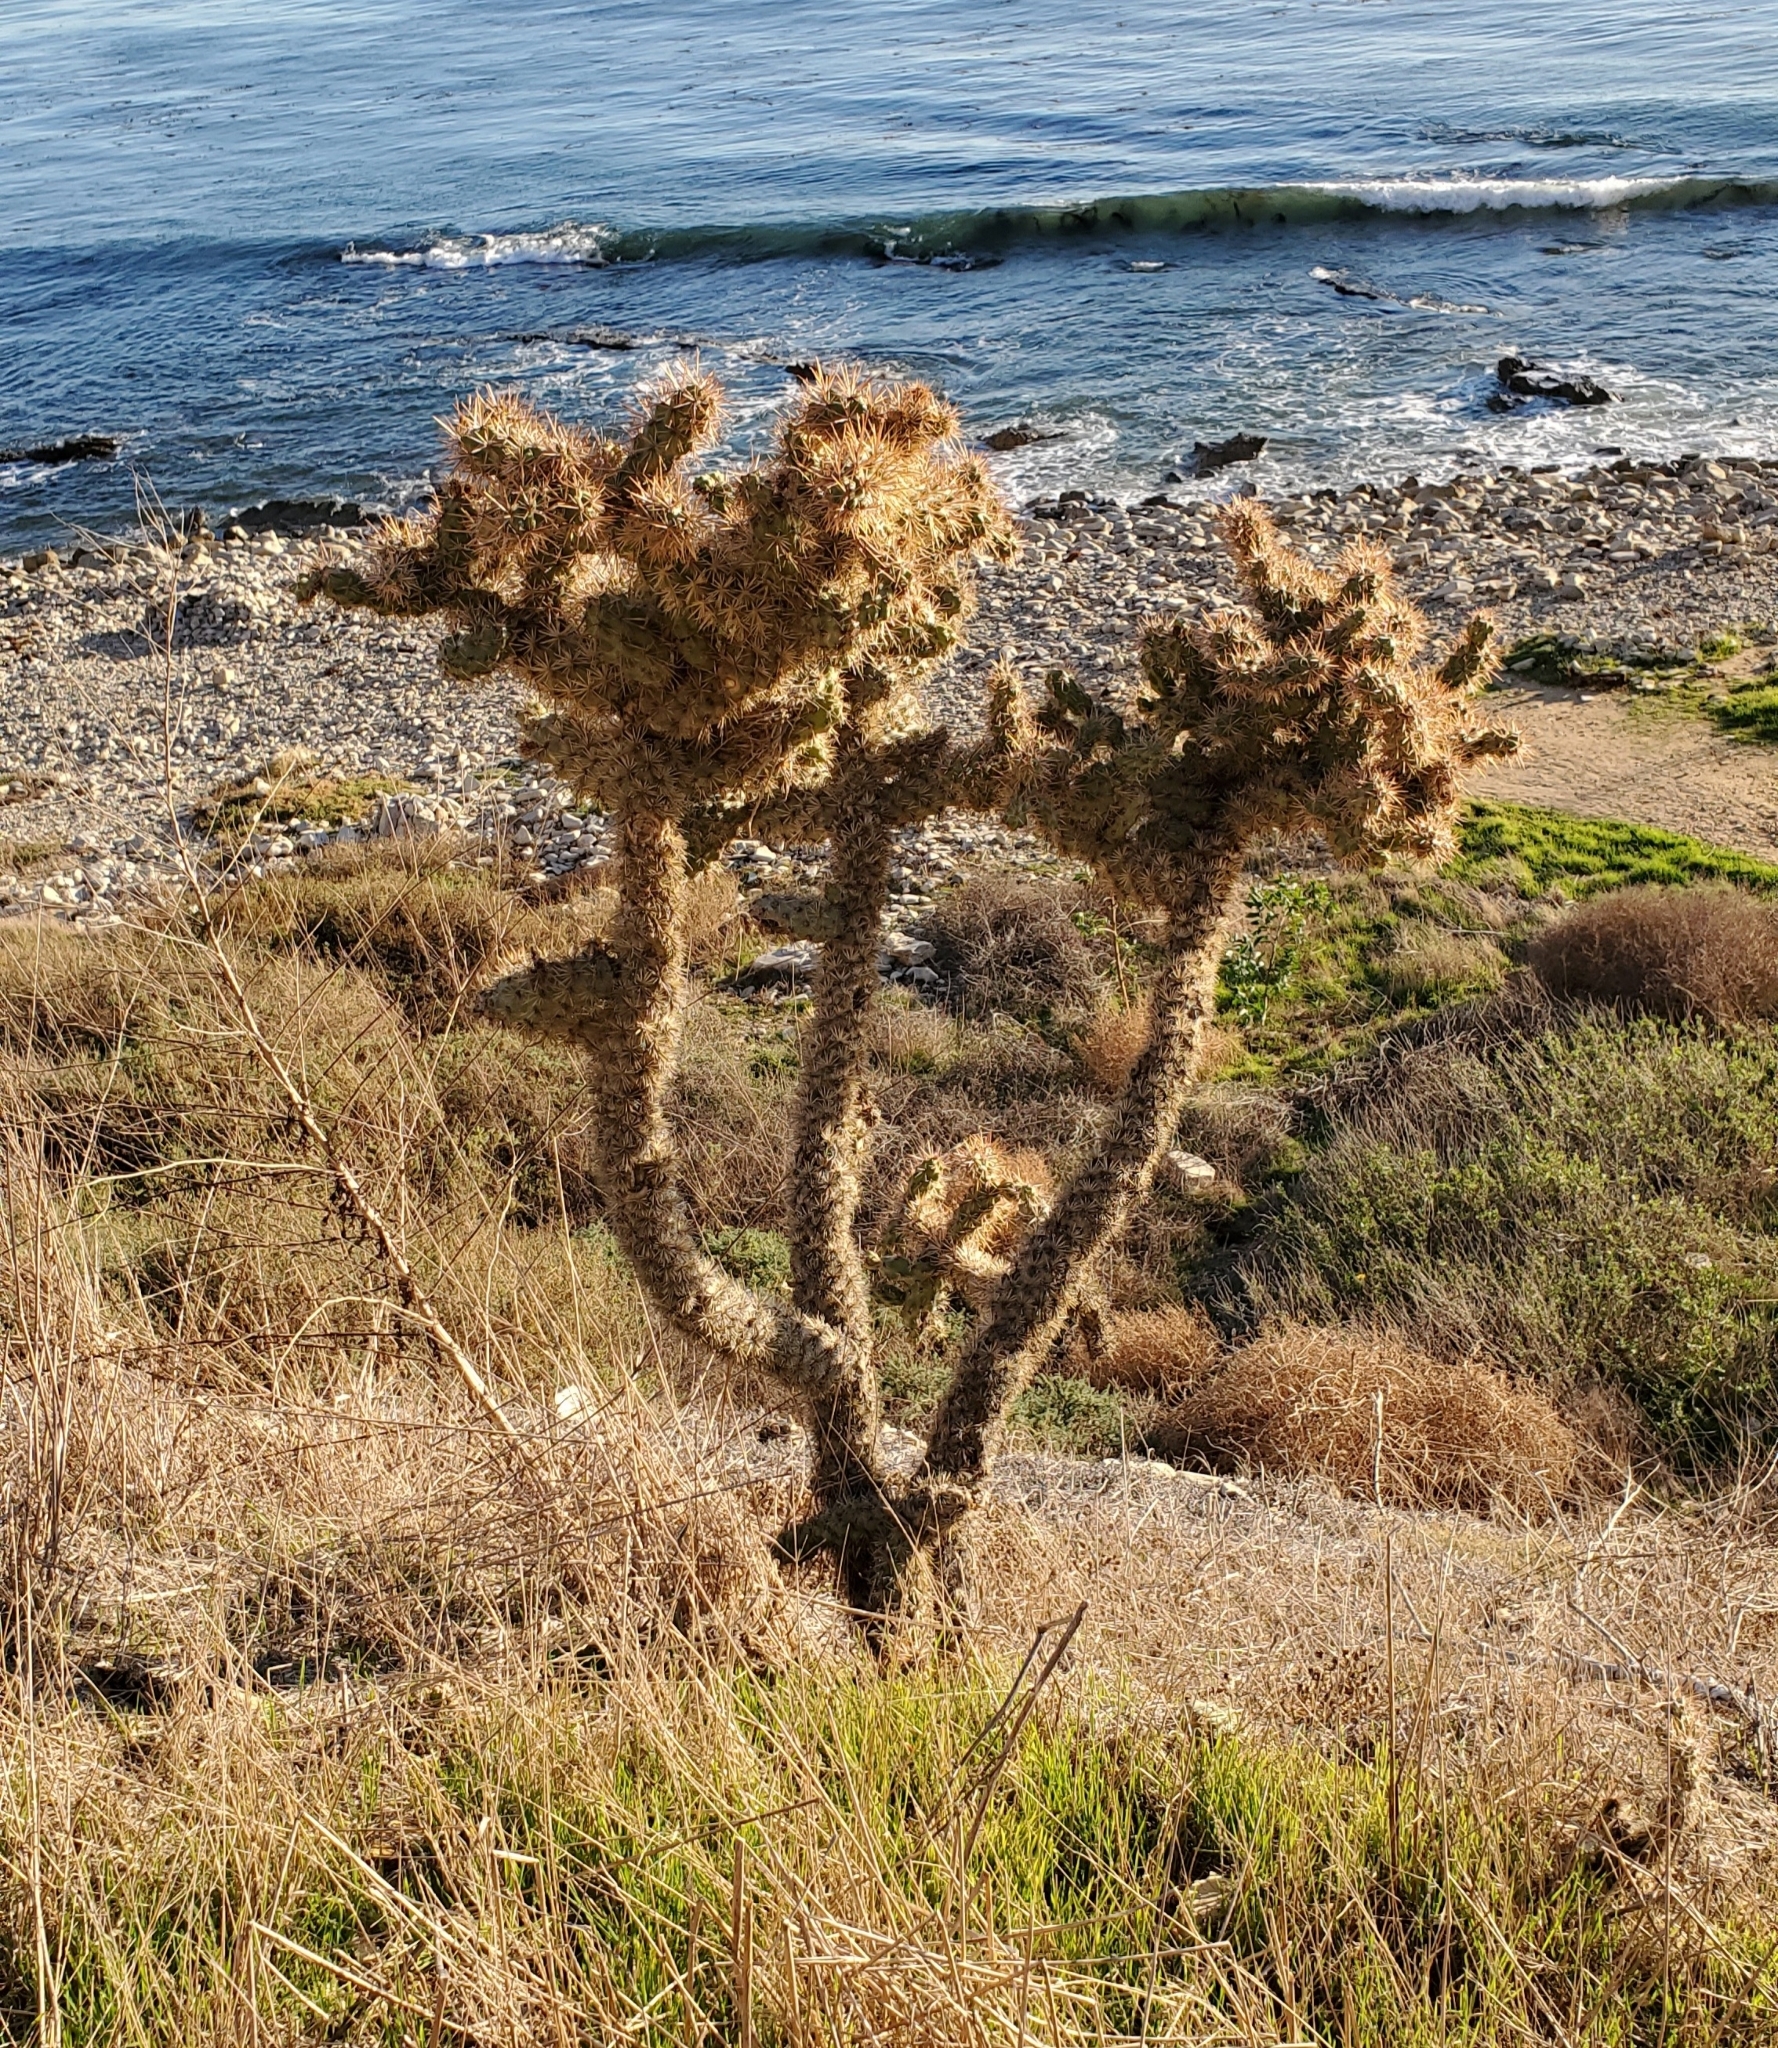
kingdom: Plantae
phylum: Tracheophyta
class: Magnoliopsida
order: Caryophyllales
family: Cactaceae
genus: Cylindropuntia
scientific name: Cylindropuntia prolifera
